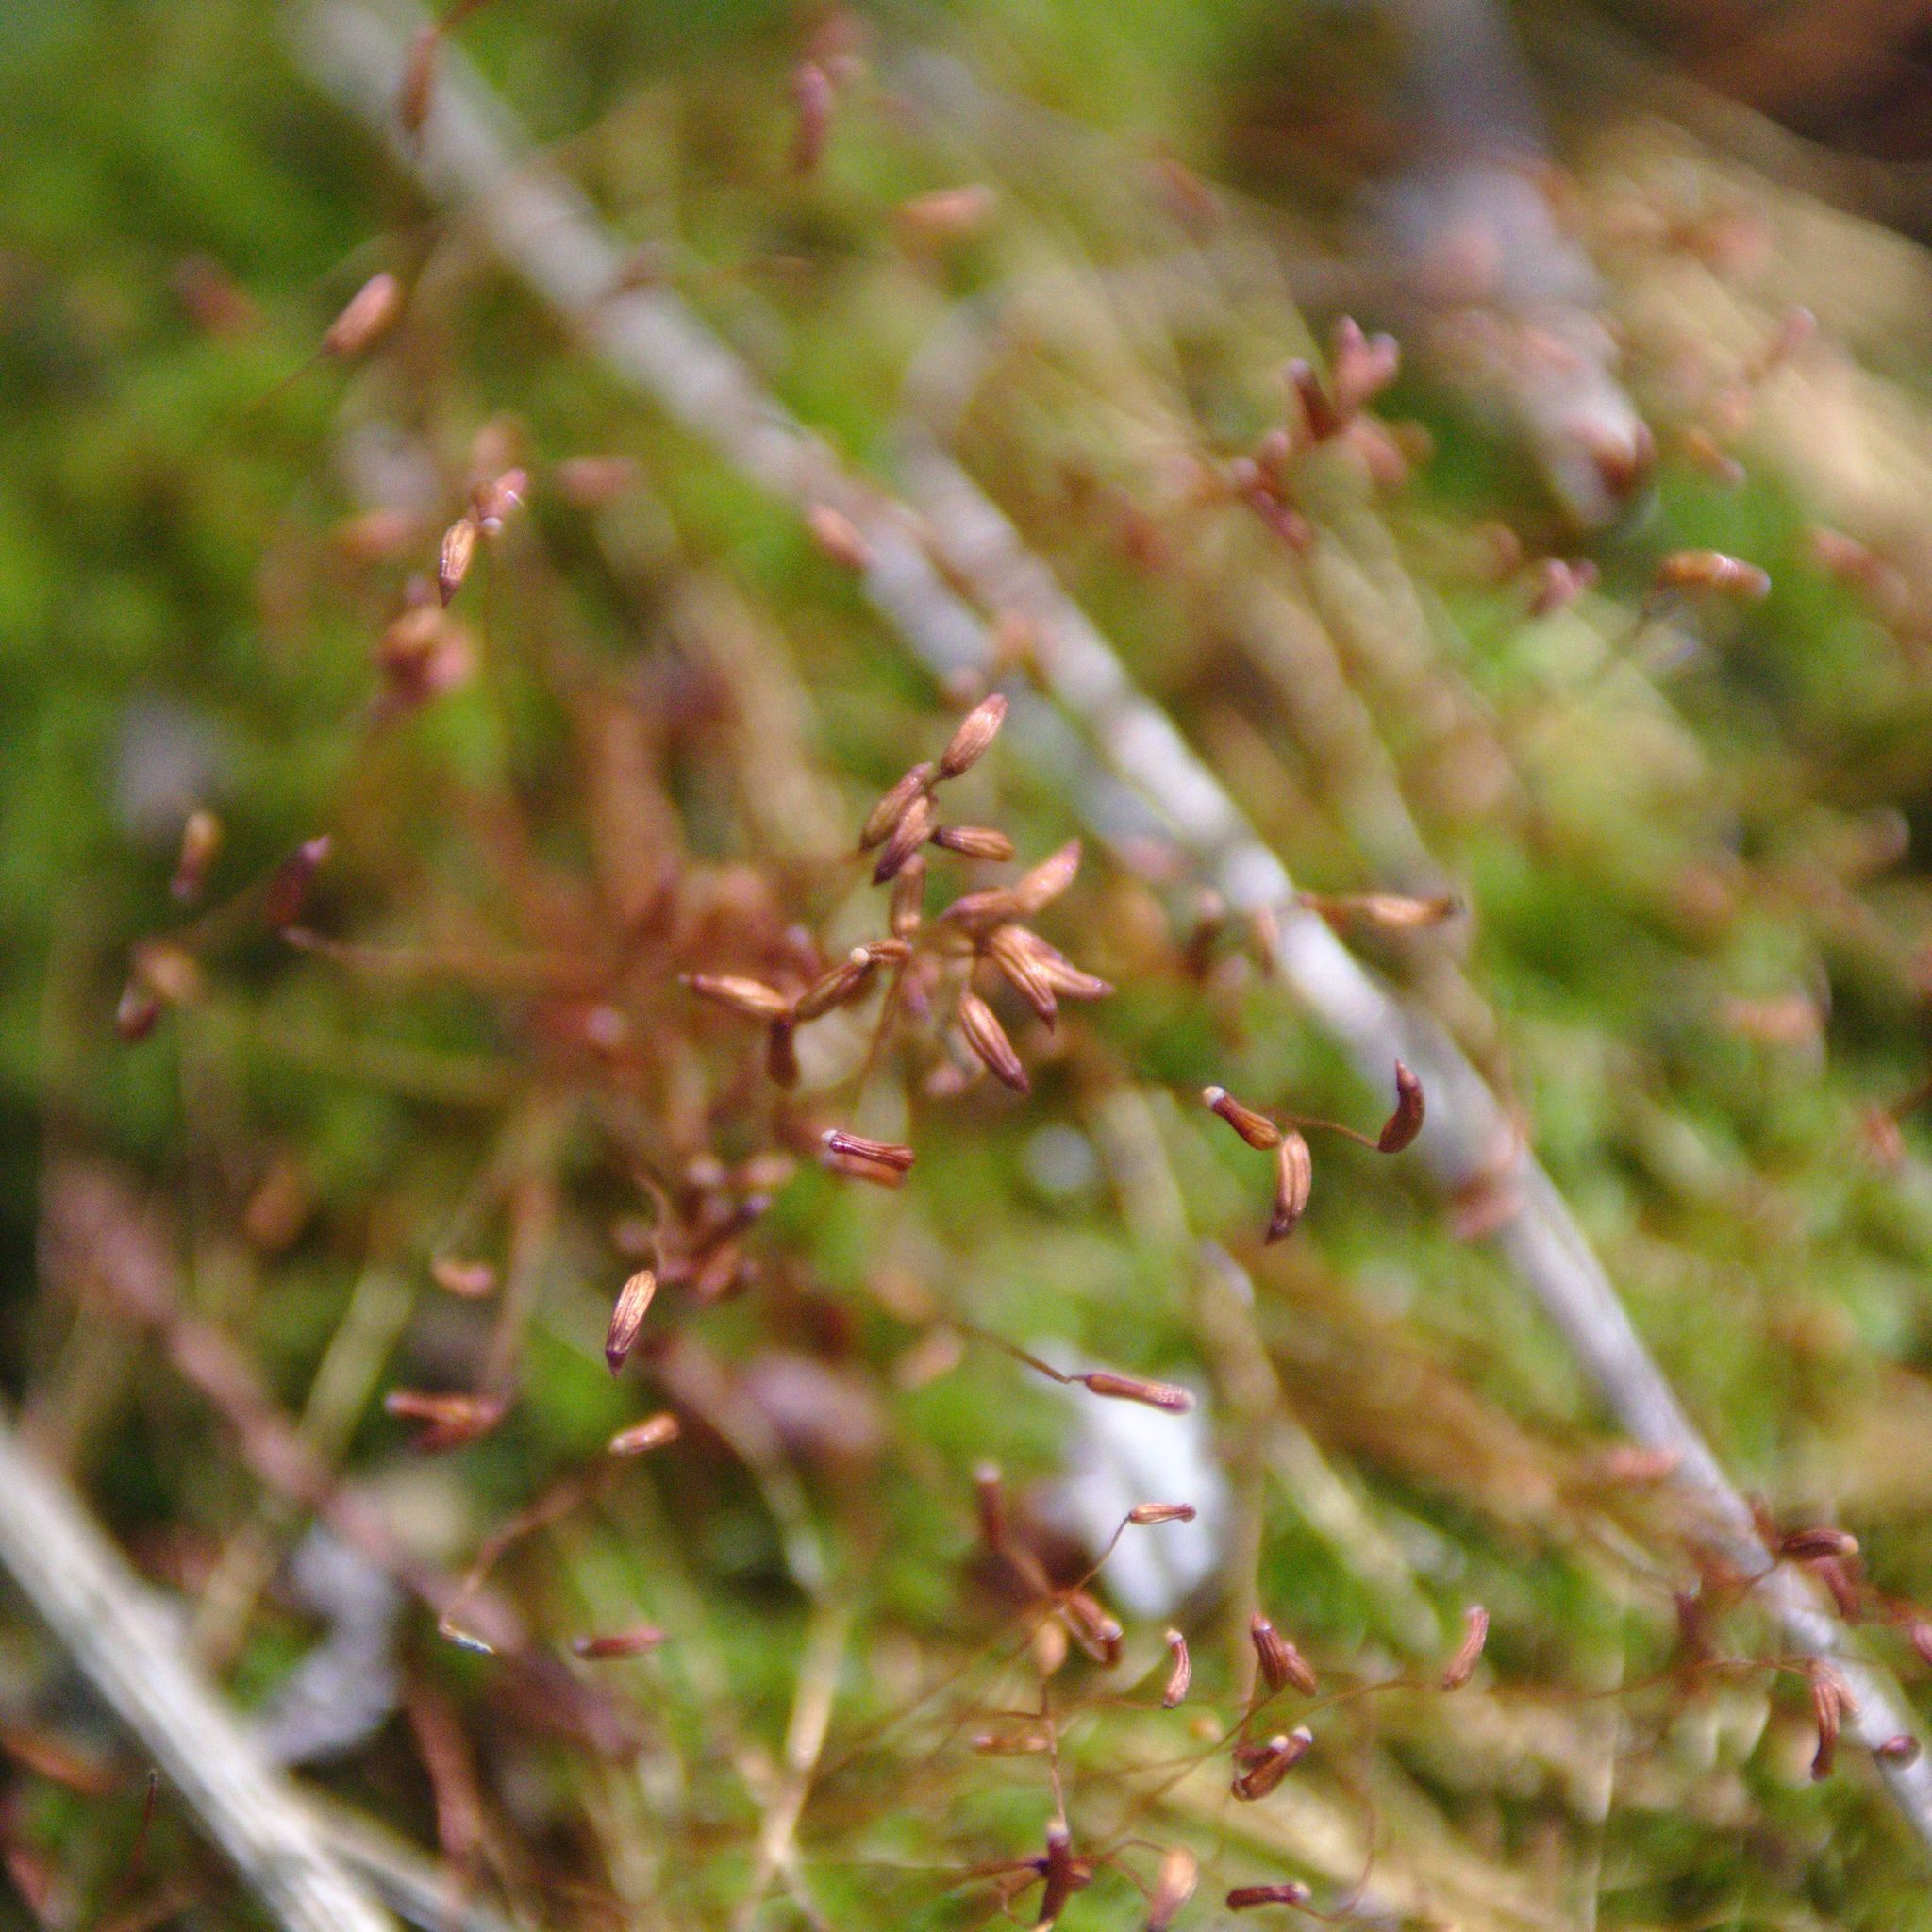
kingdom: Plantae
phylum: Bryophyta
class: Bryopsida
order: Dicranales
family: Ditrichaceae
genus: Ceratodon
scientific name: Ceratodon purpureus
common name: Redshank
